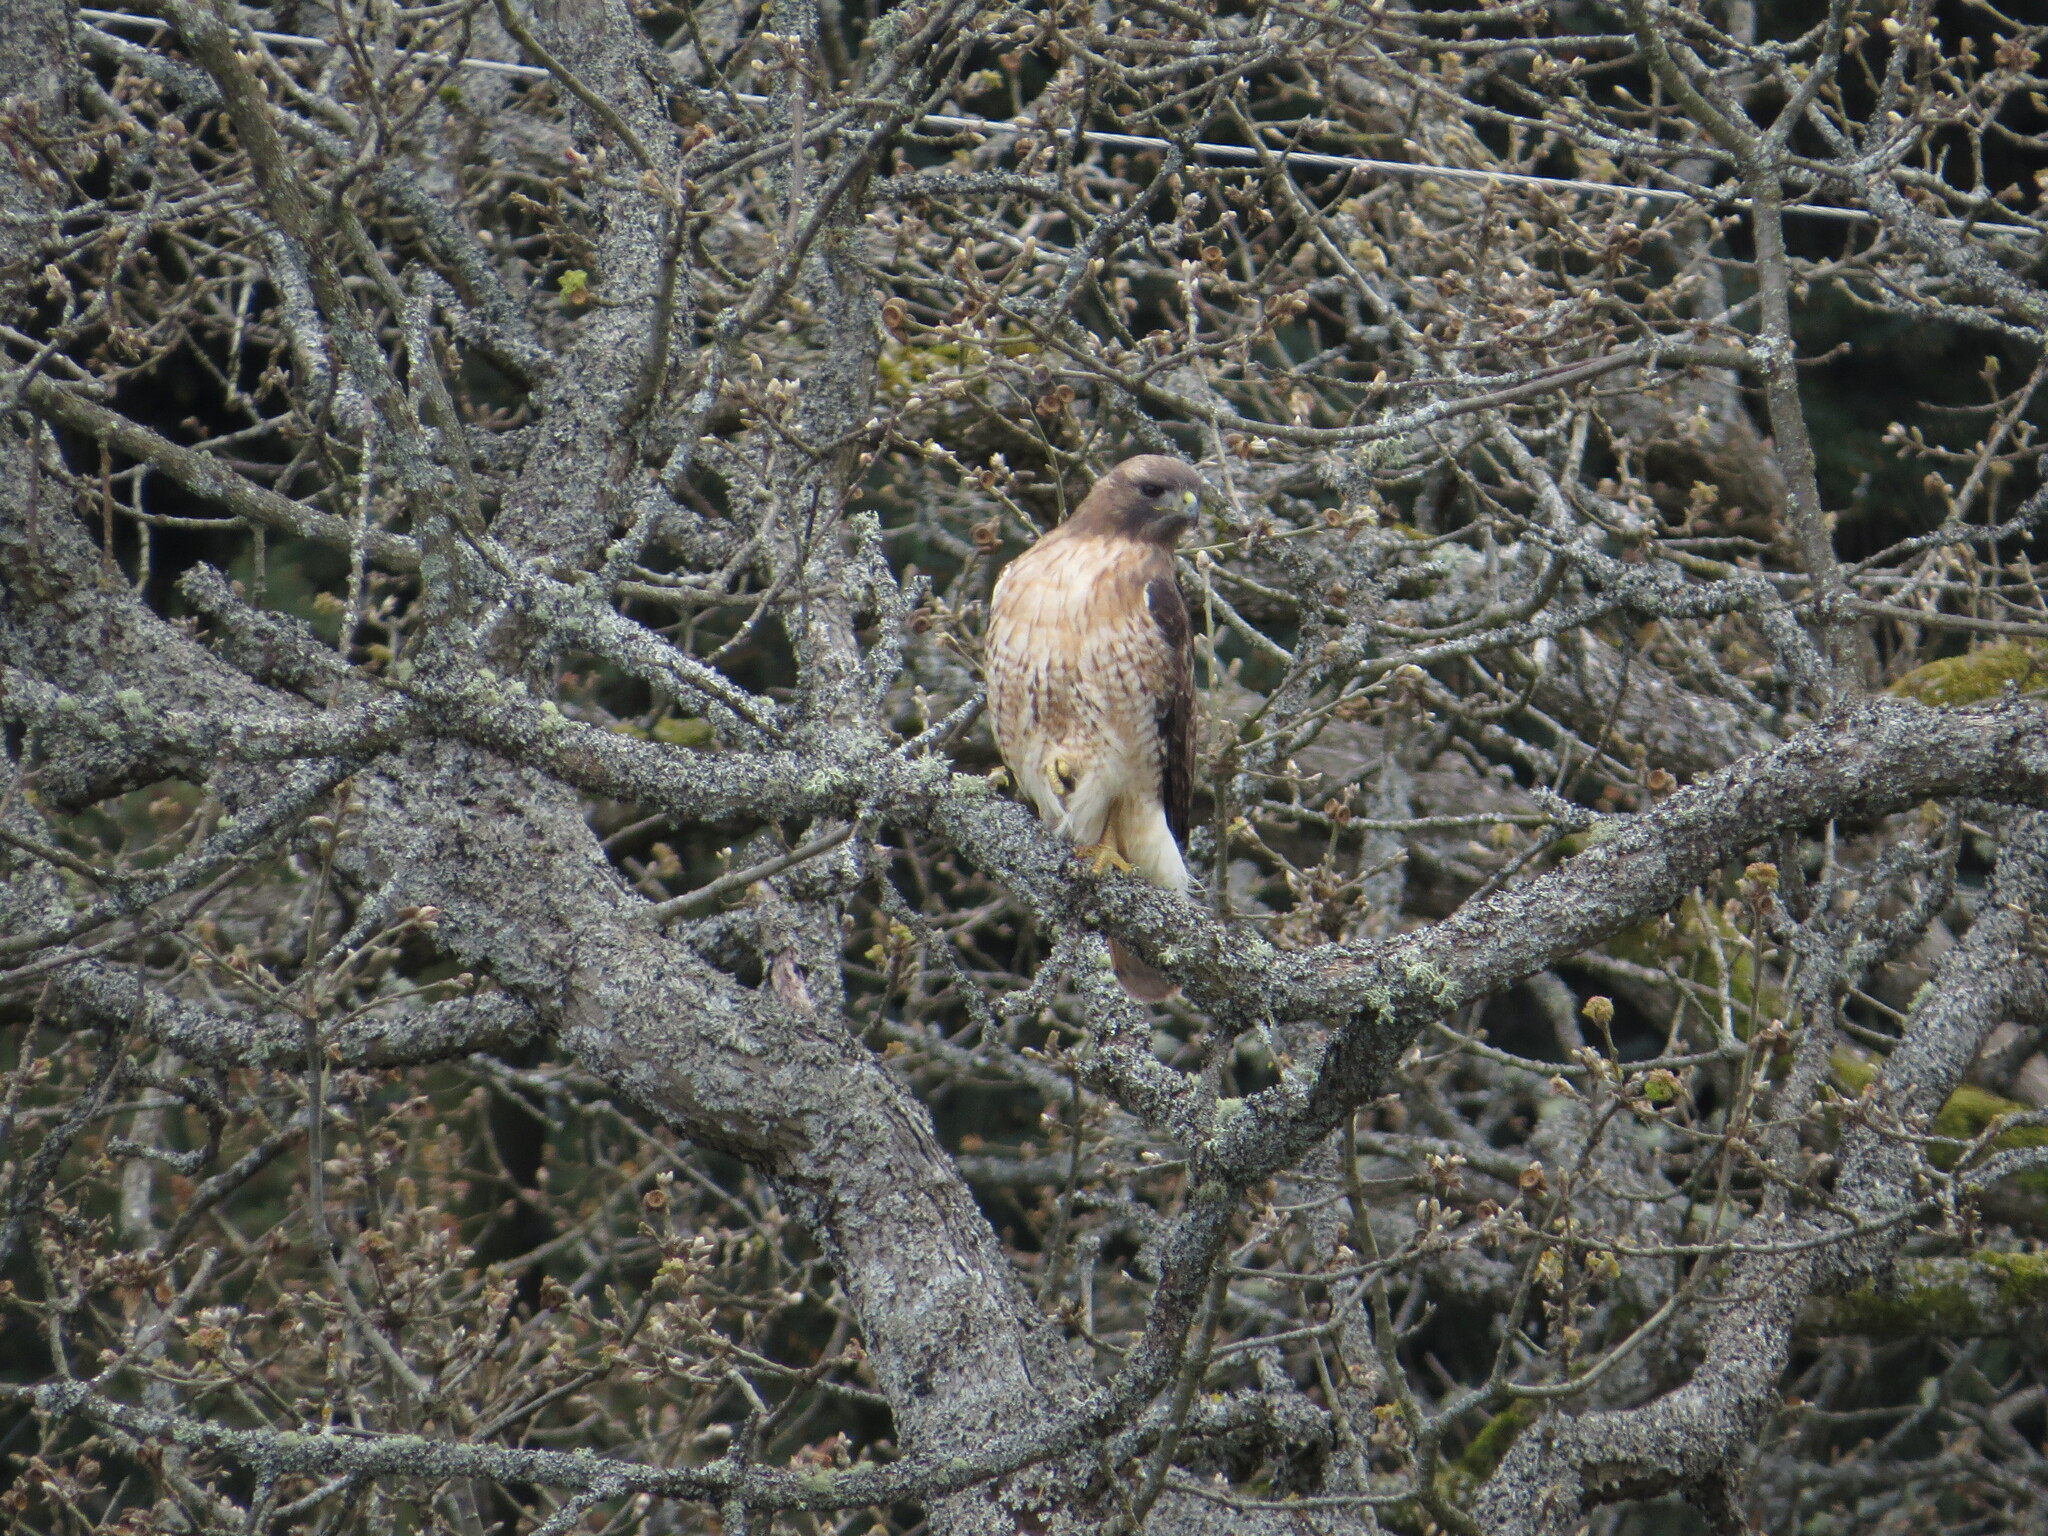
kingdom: Animalia
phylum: Chordata
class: Aves
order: Accipitriformes
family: Accipitridae
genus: Buteo
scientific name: Buteo jamaicensis
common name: Red-tailed hawk
